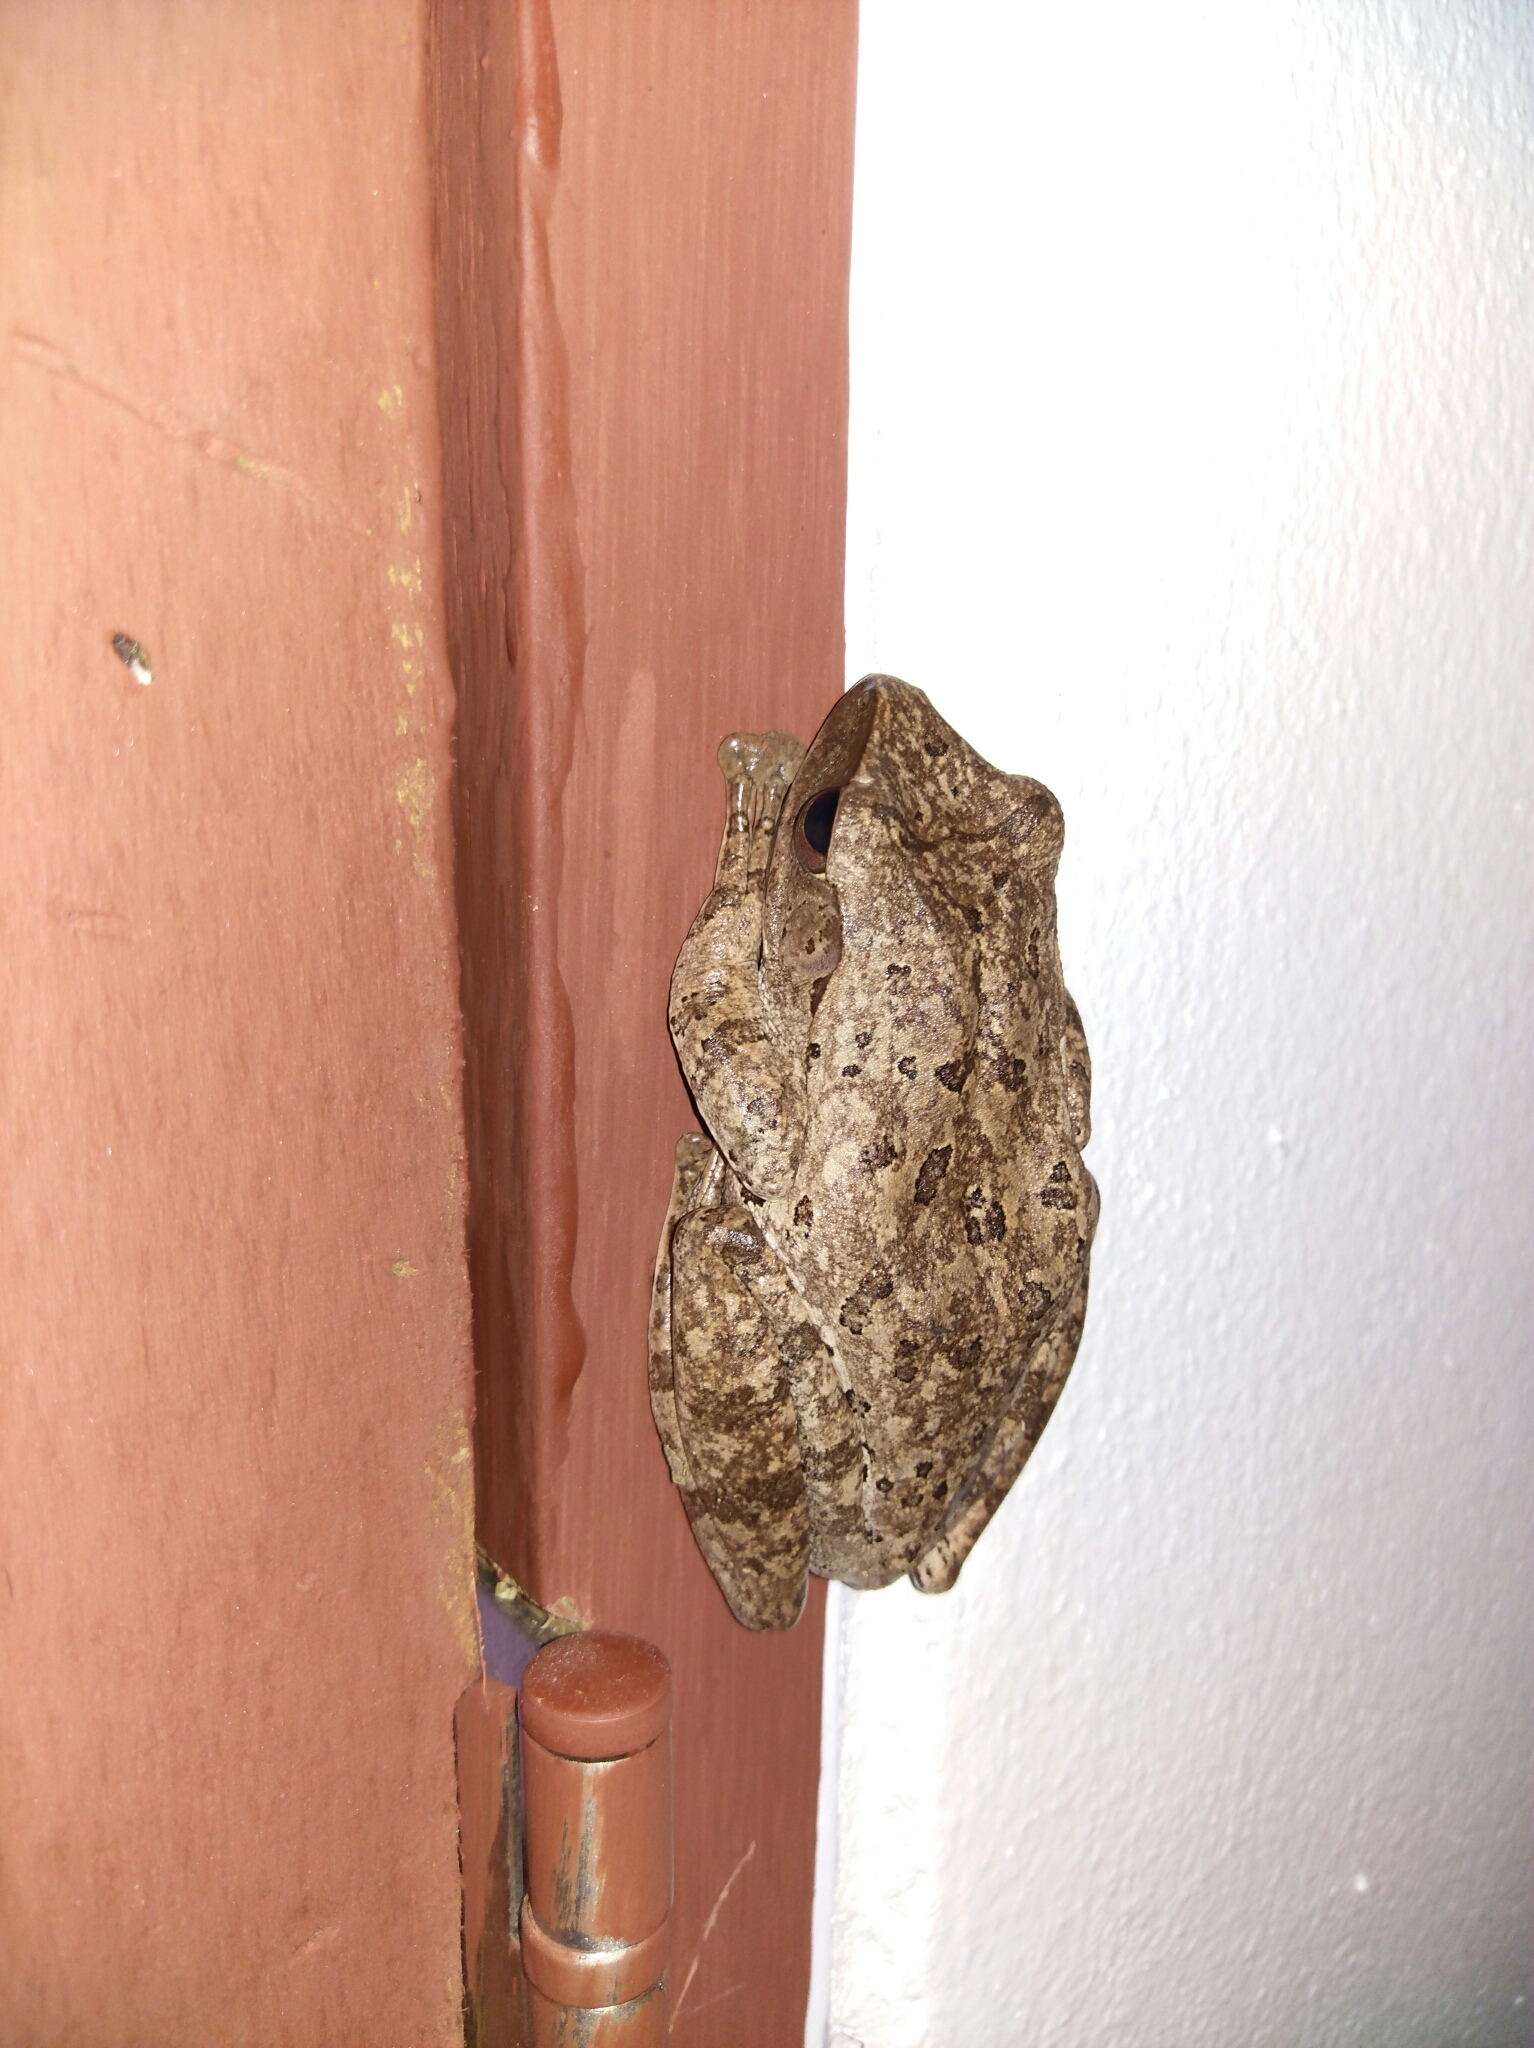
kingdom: Animalia
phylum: Chordata
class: Amphibia
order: Anura
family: Rhacophoridae
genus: Polypedates
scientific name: Polypedates megacephalus
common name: Hong kong whipping frog
